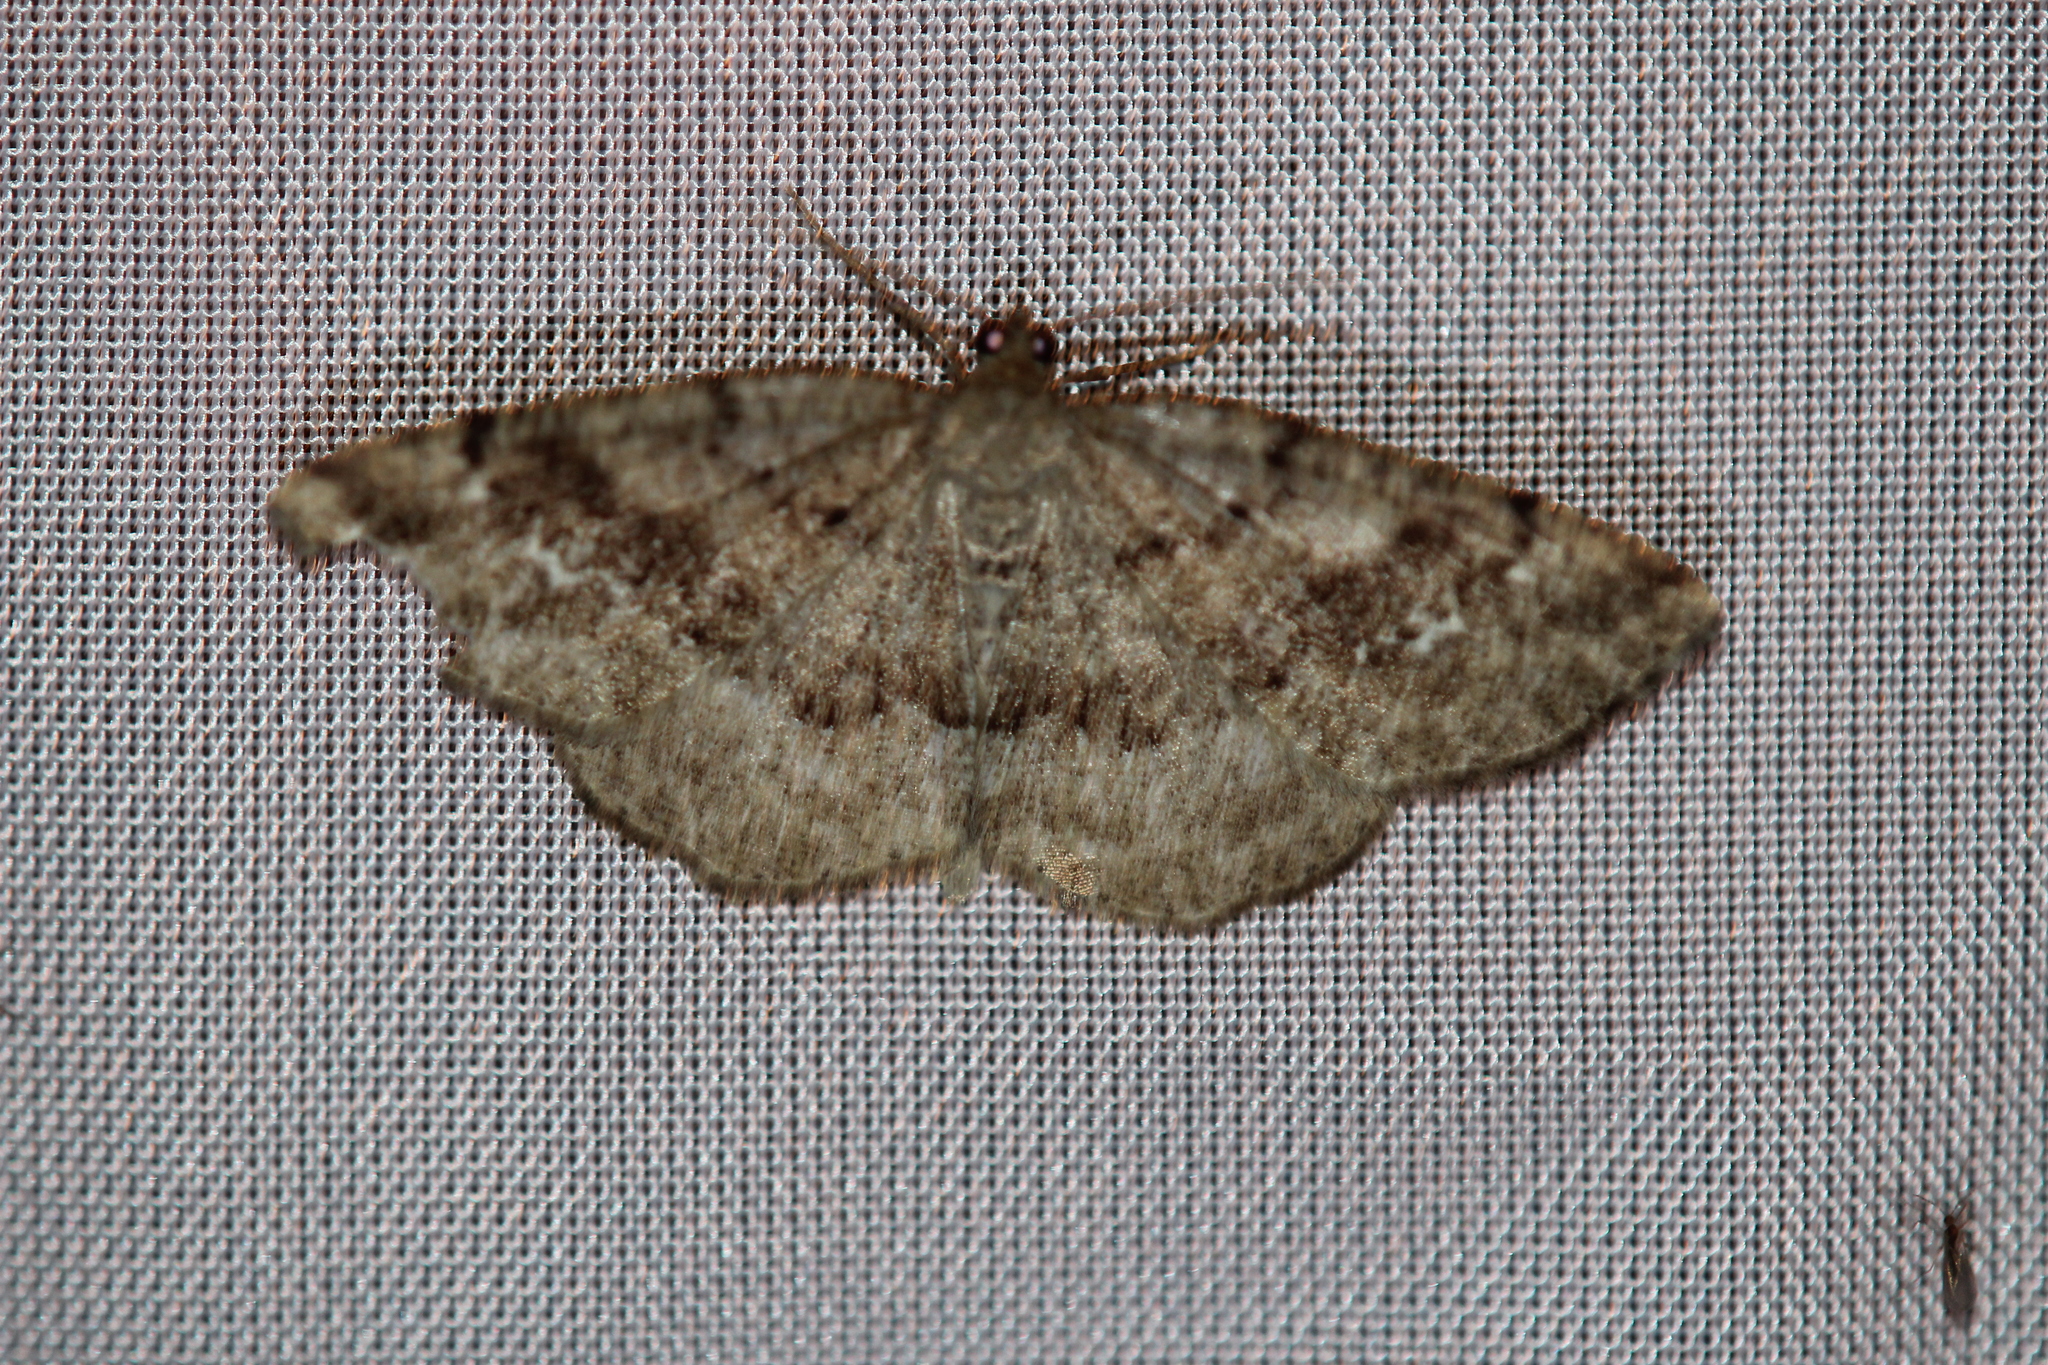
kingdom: Animalia
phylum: Arthropoda
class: Insecta
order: Lepidoptera
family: Geometridae
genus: Homochlodes
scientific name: Homochlodes fritillaria
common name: Pale homochlodes
